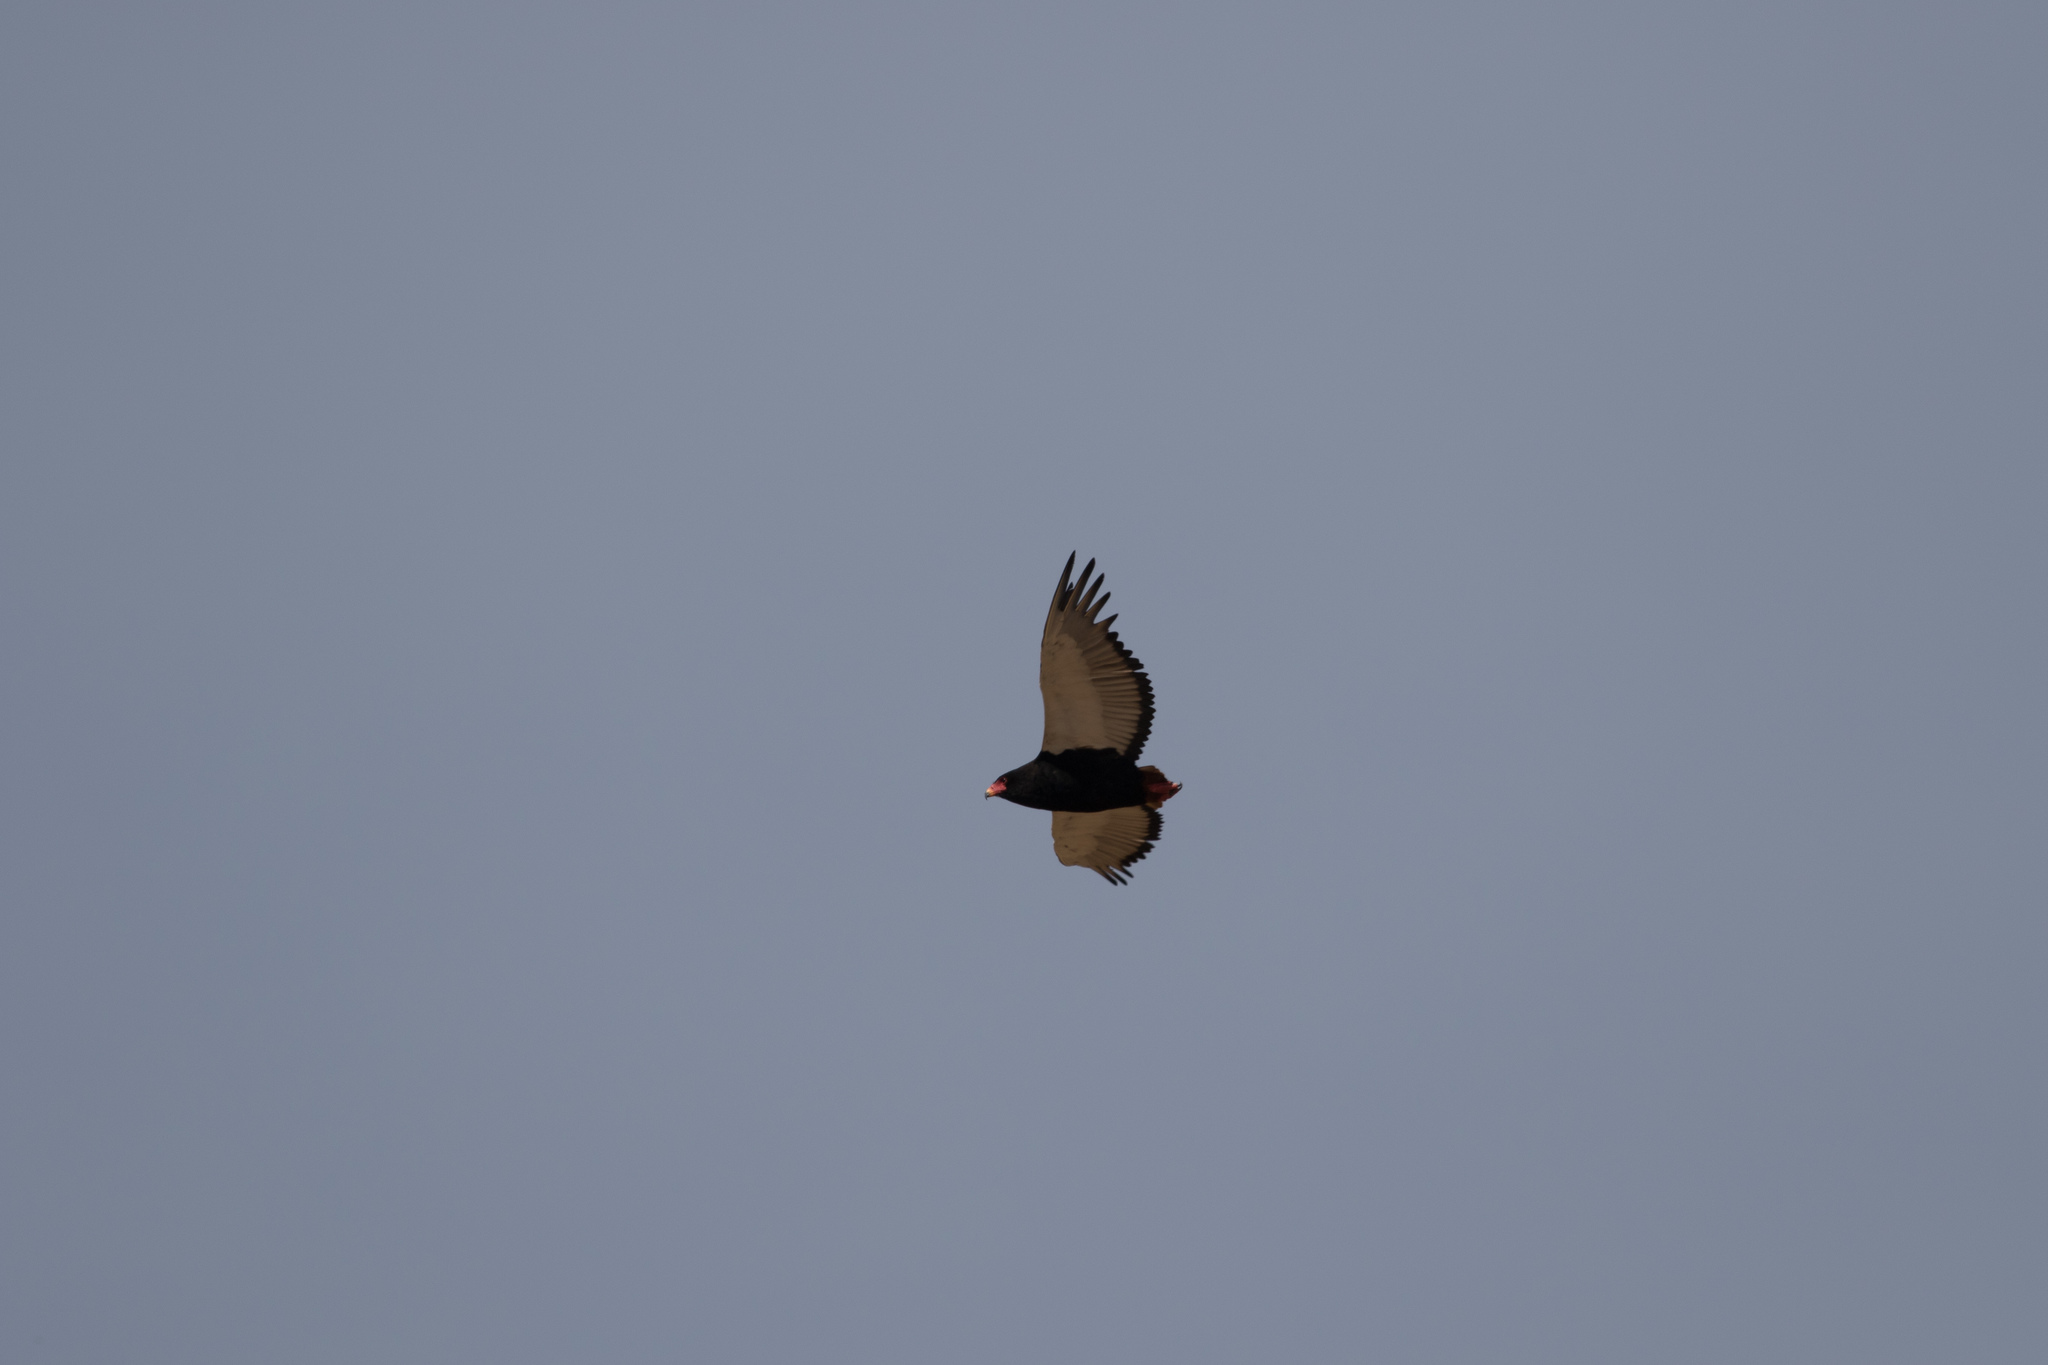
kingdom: Animalia
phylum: Chordata
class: Aves
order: Accipitriformes
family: Accipitridae
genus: Terathopius
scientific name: Terathopius ecaudatus
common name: Bateleur
